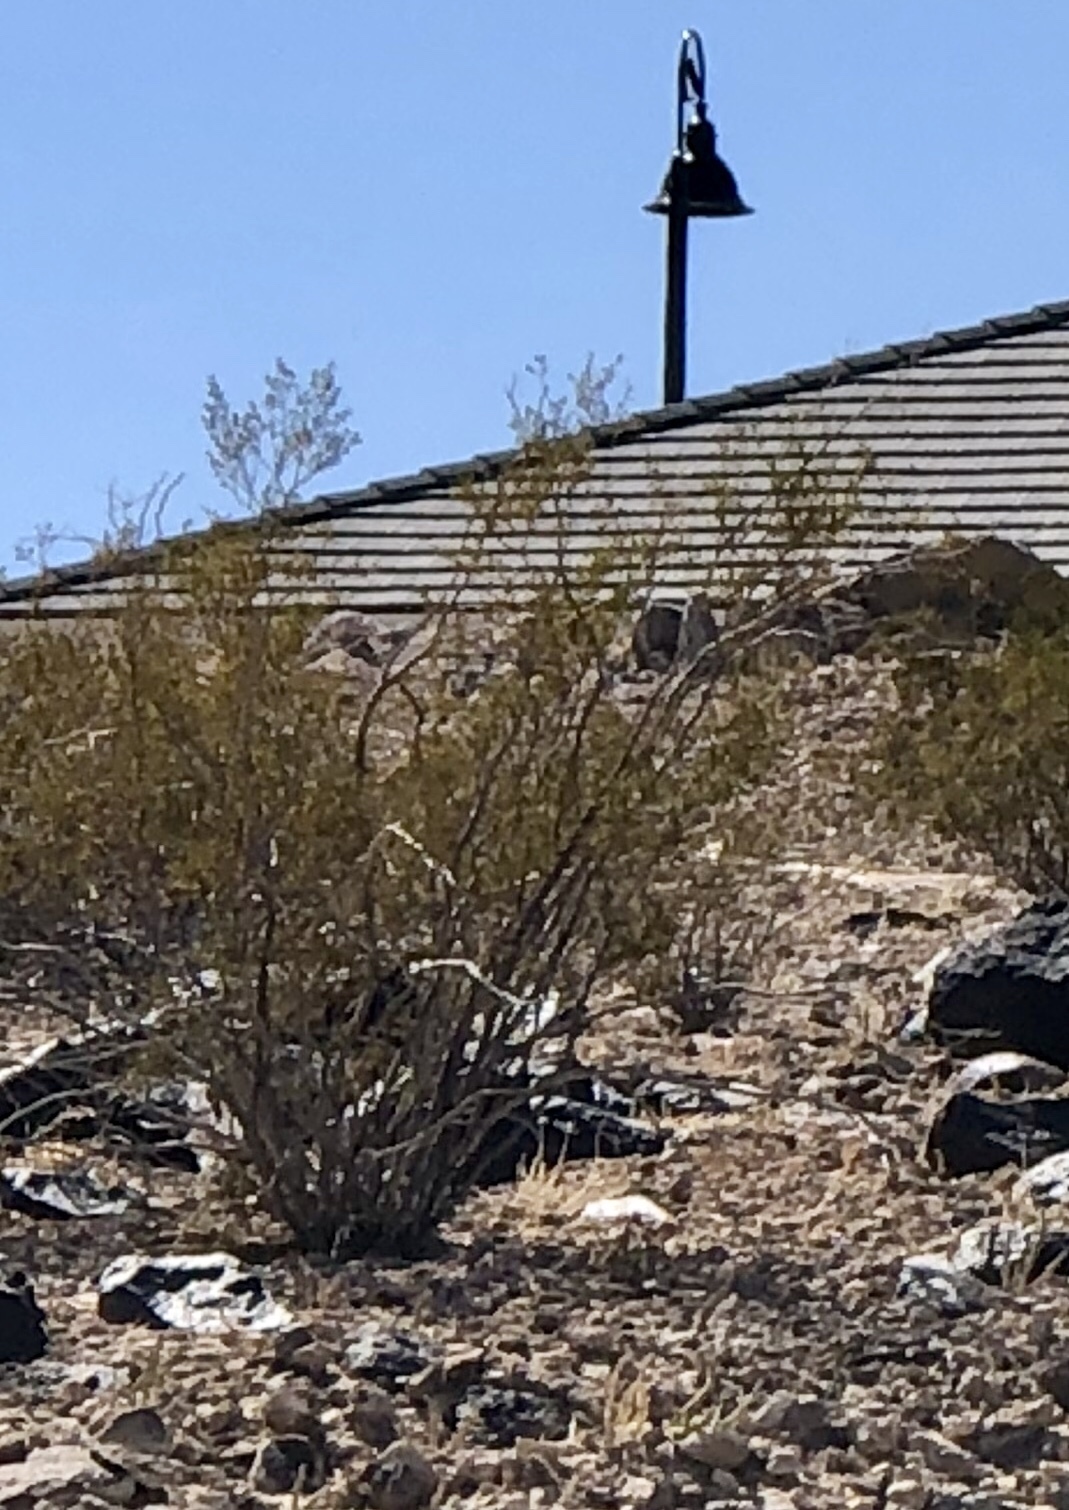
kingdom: Plantae
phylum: Tracheophyta
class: Magnoliopsida
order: Zygophyllales
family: Zygophyllaceae
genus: Larrea
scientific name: Larrea tridentata
